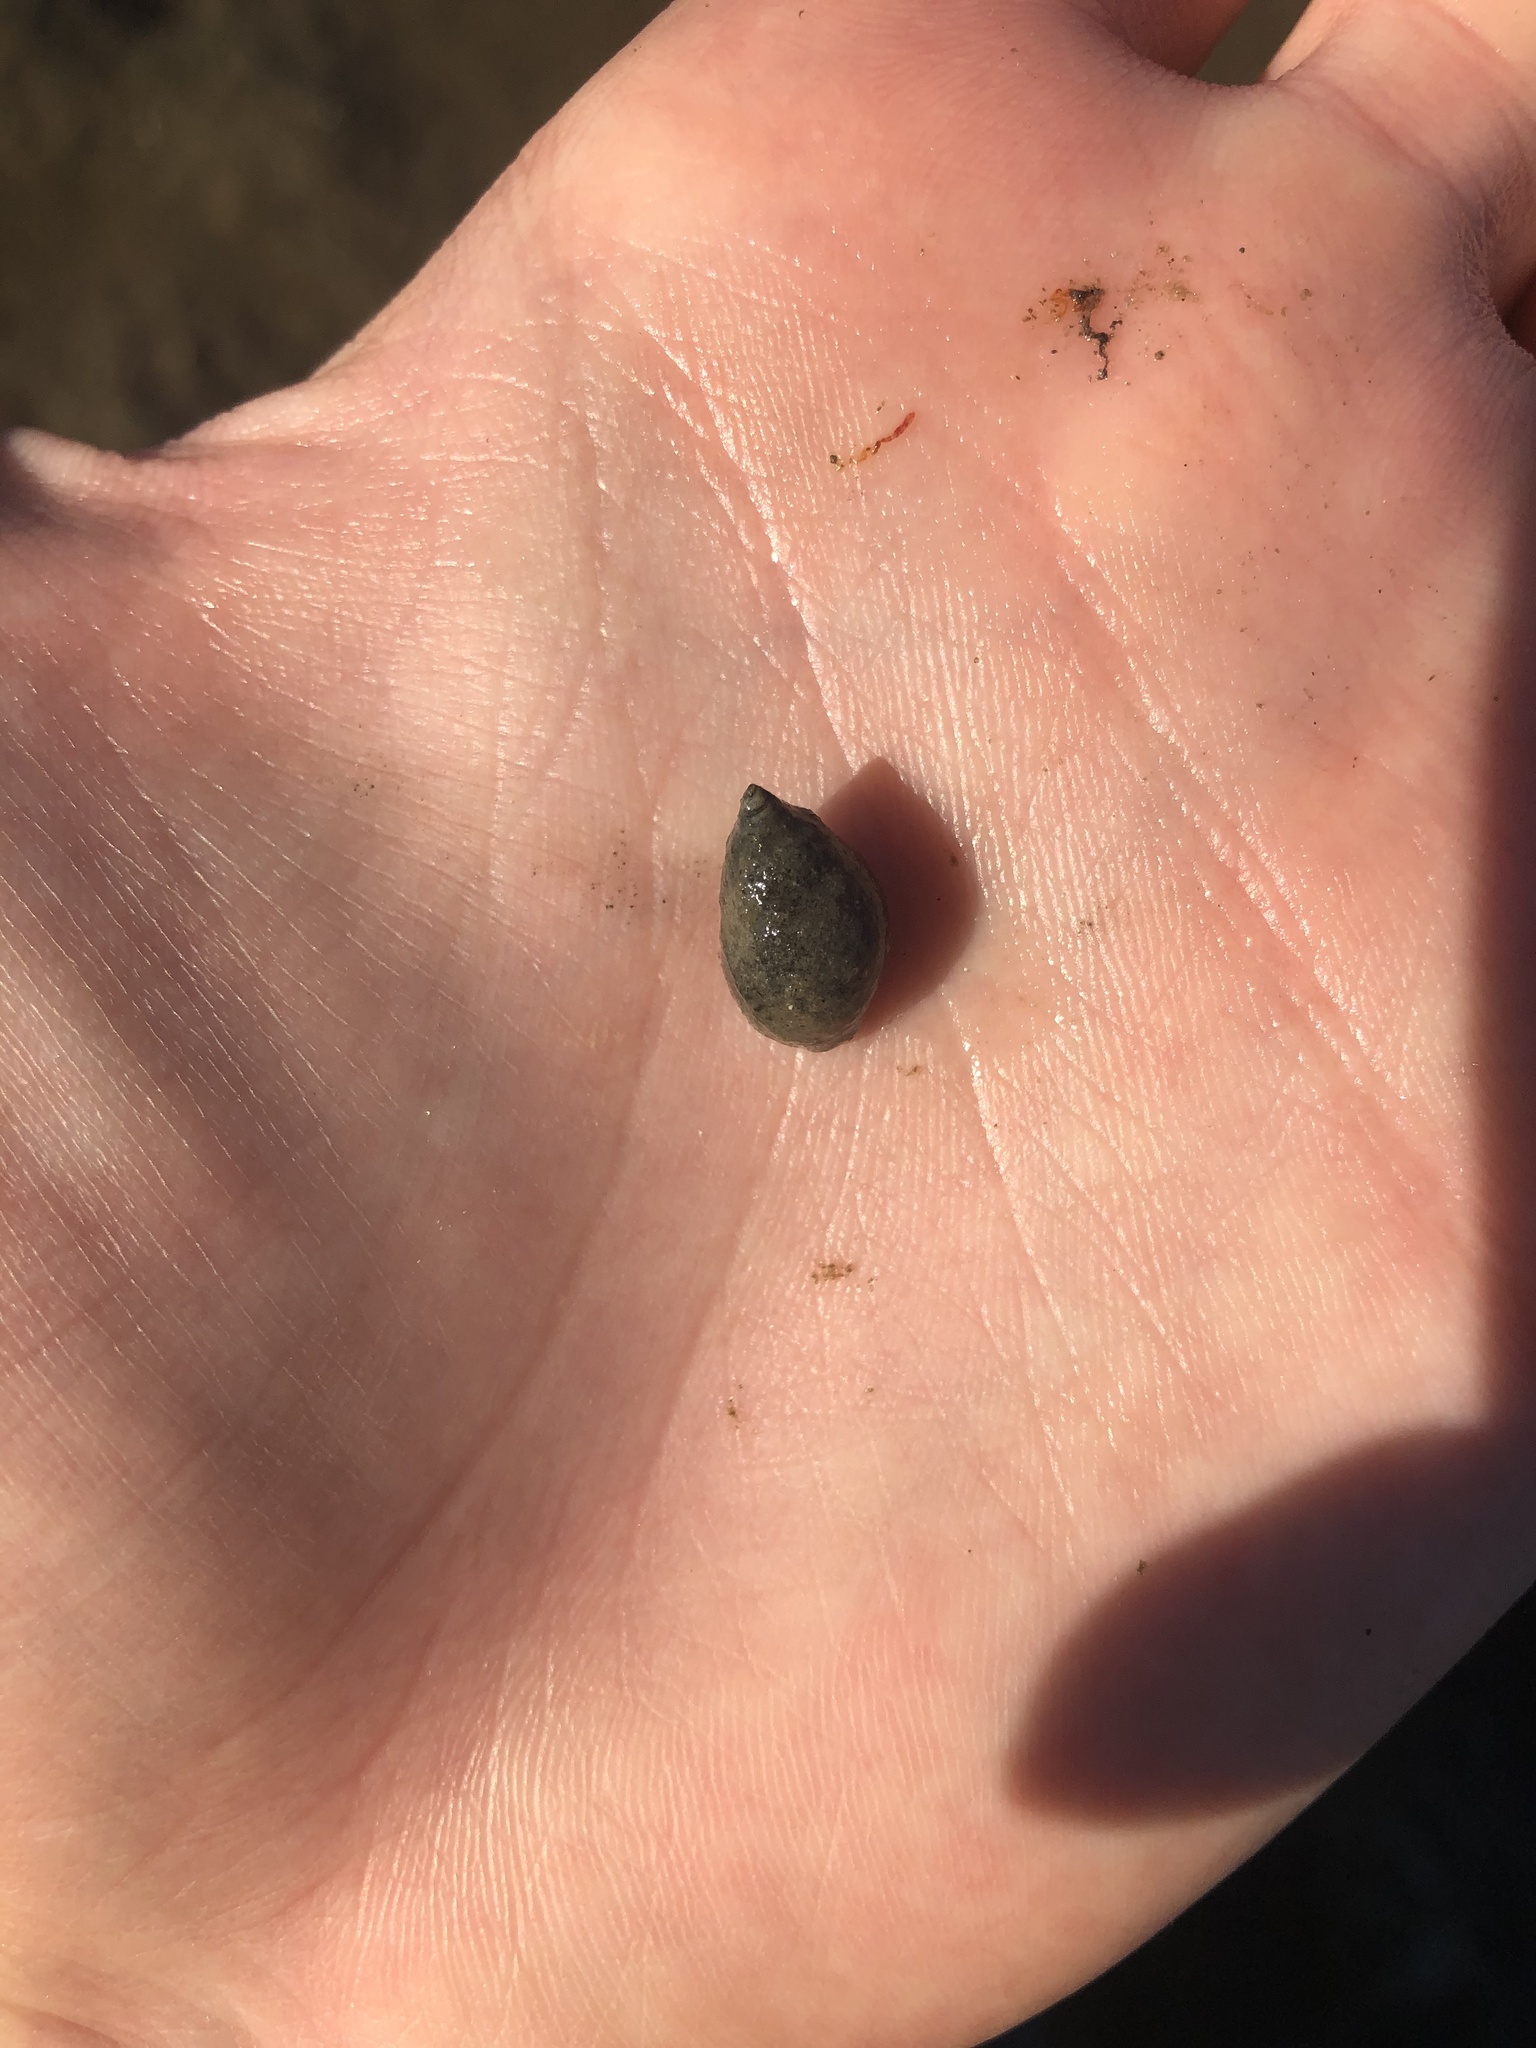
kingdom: Animalia
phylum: Mollusca
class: Gastropoda
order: Neogastropoda
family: Nassariidae
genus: Ilyanassa
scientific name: Ilyanassa obsoleta
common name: Eastern mudsnail
